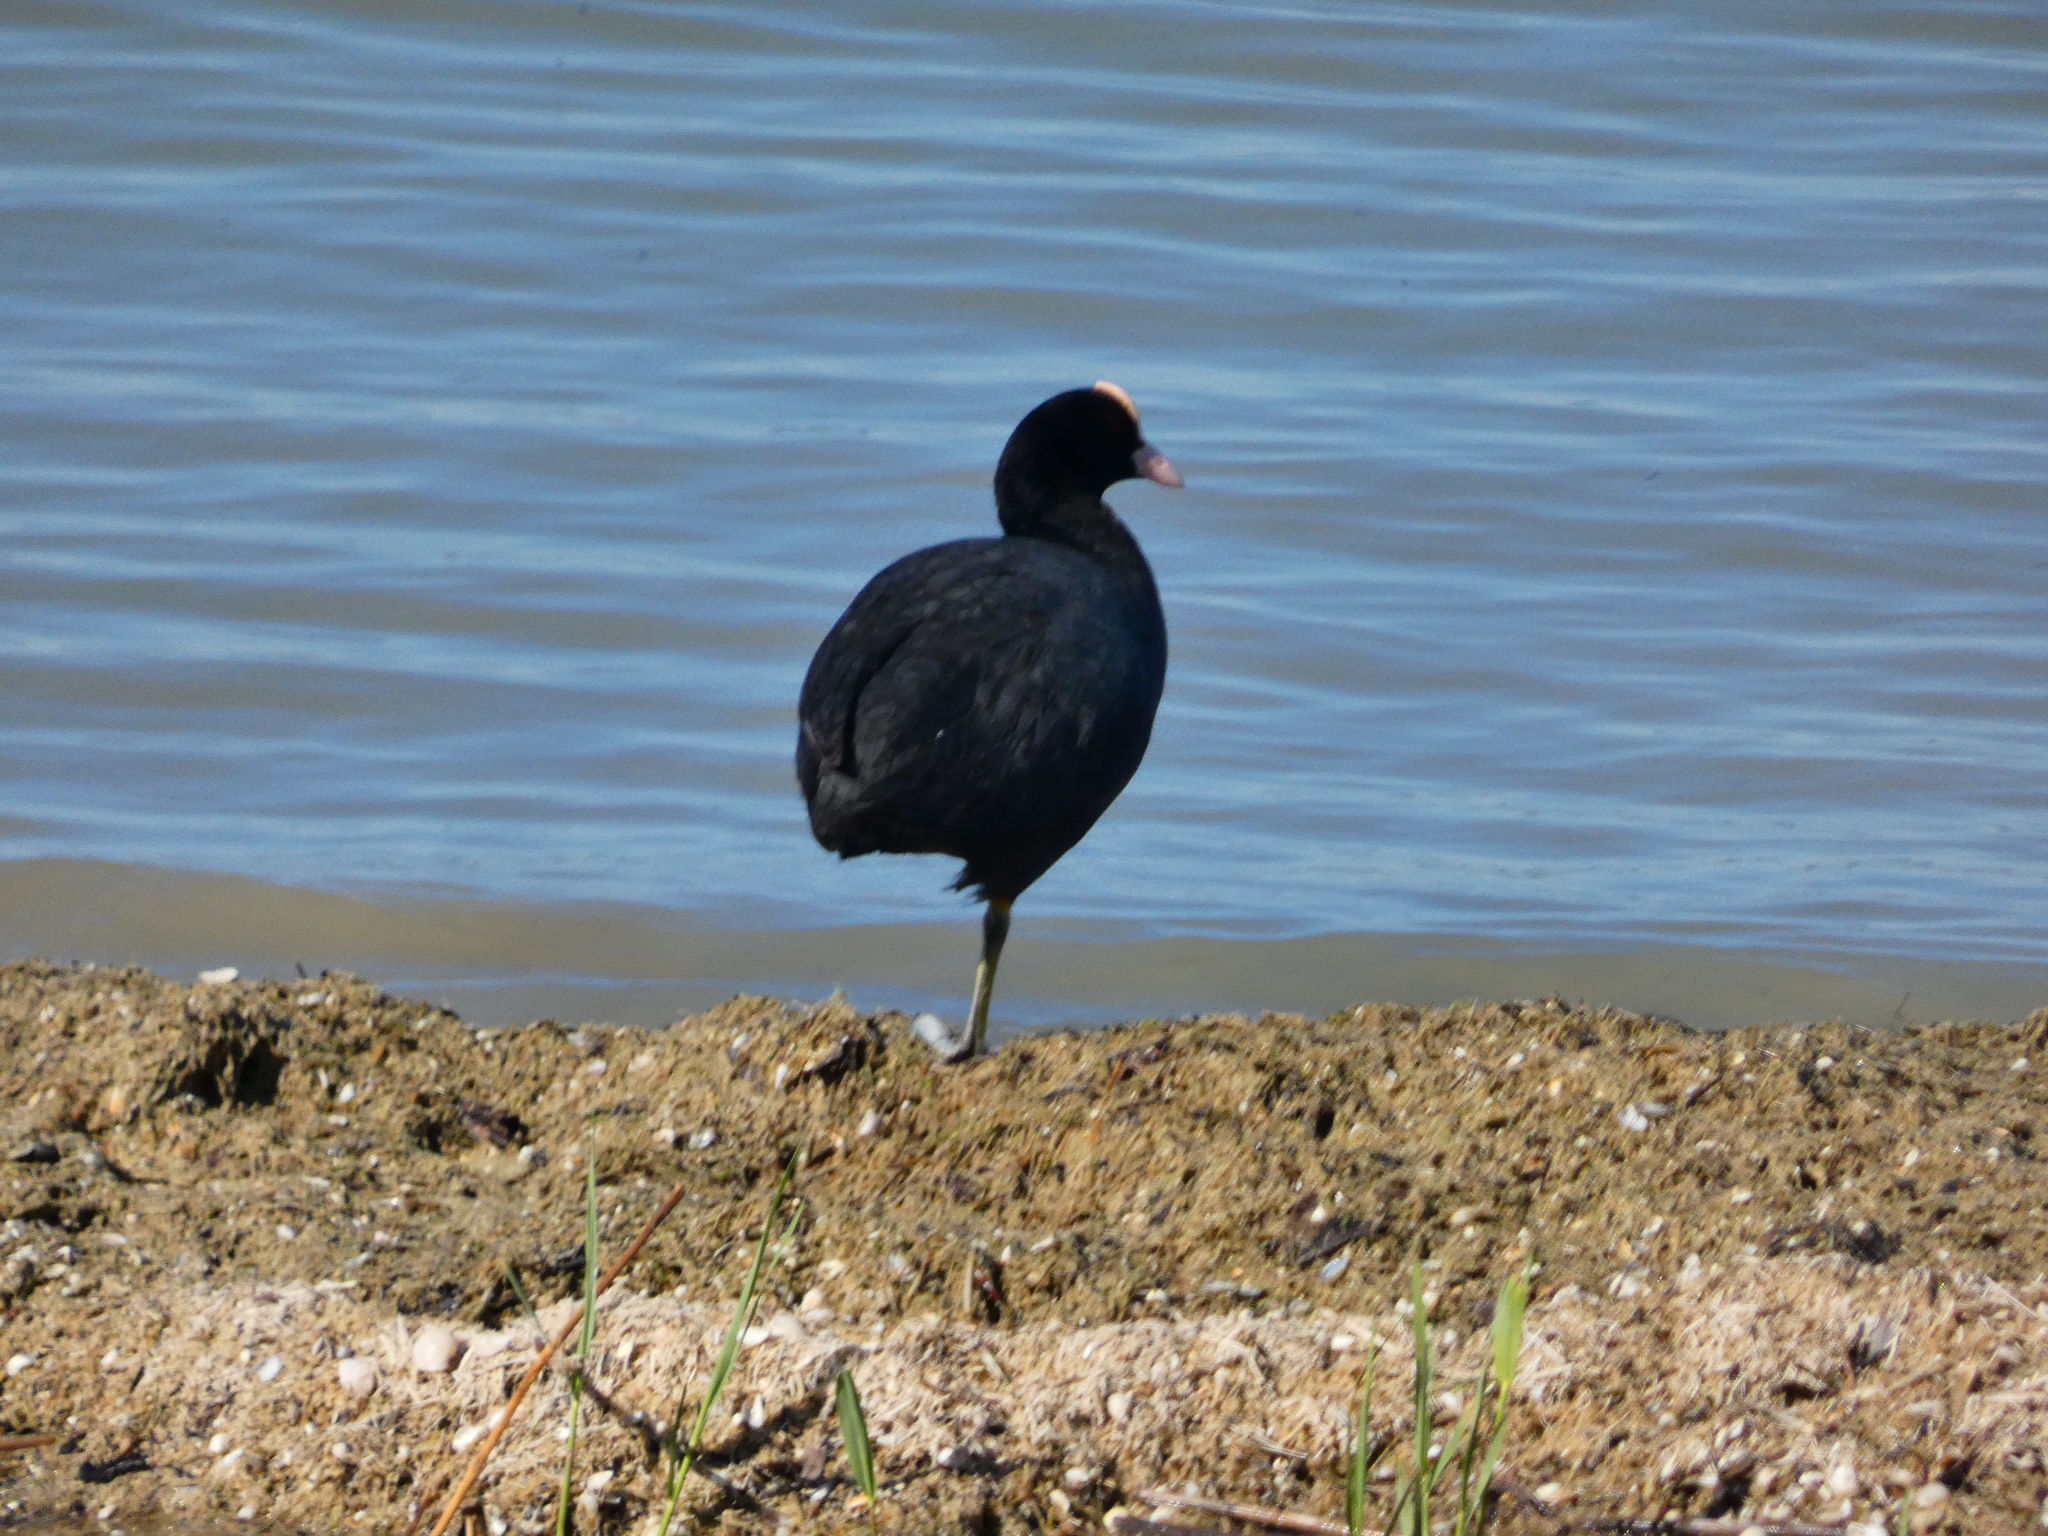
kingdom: Animalia
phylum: Chordata
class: Aves
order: Gruiformes
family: Rallidae
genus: Fulica
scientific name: Fulica atra
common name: Eurasian coot
